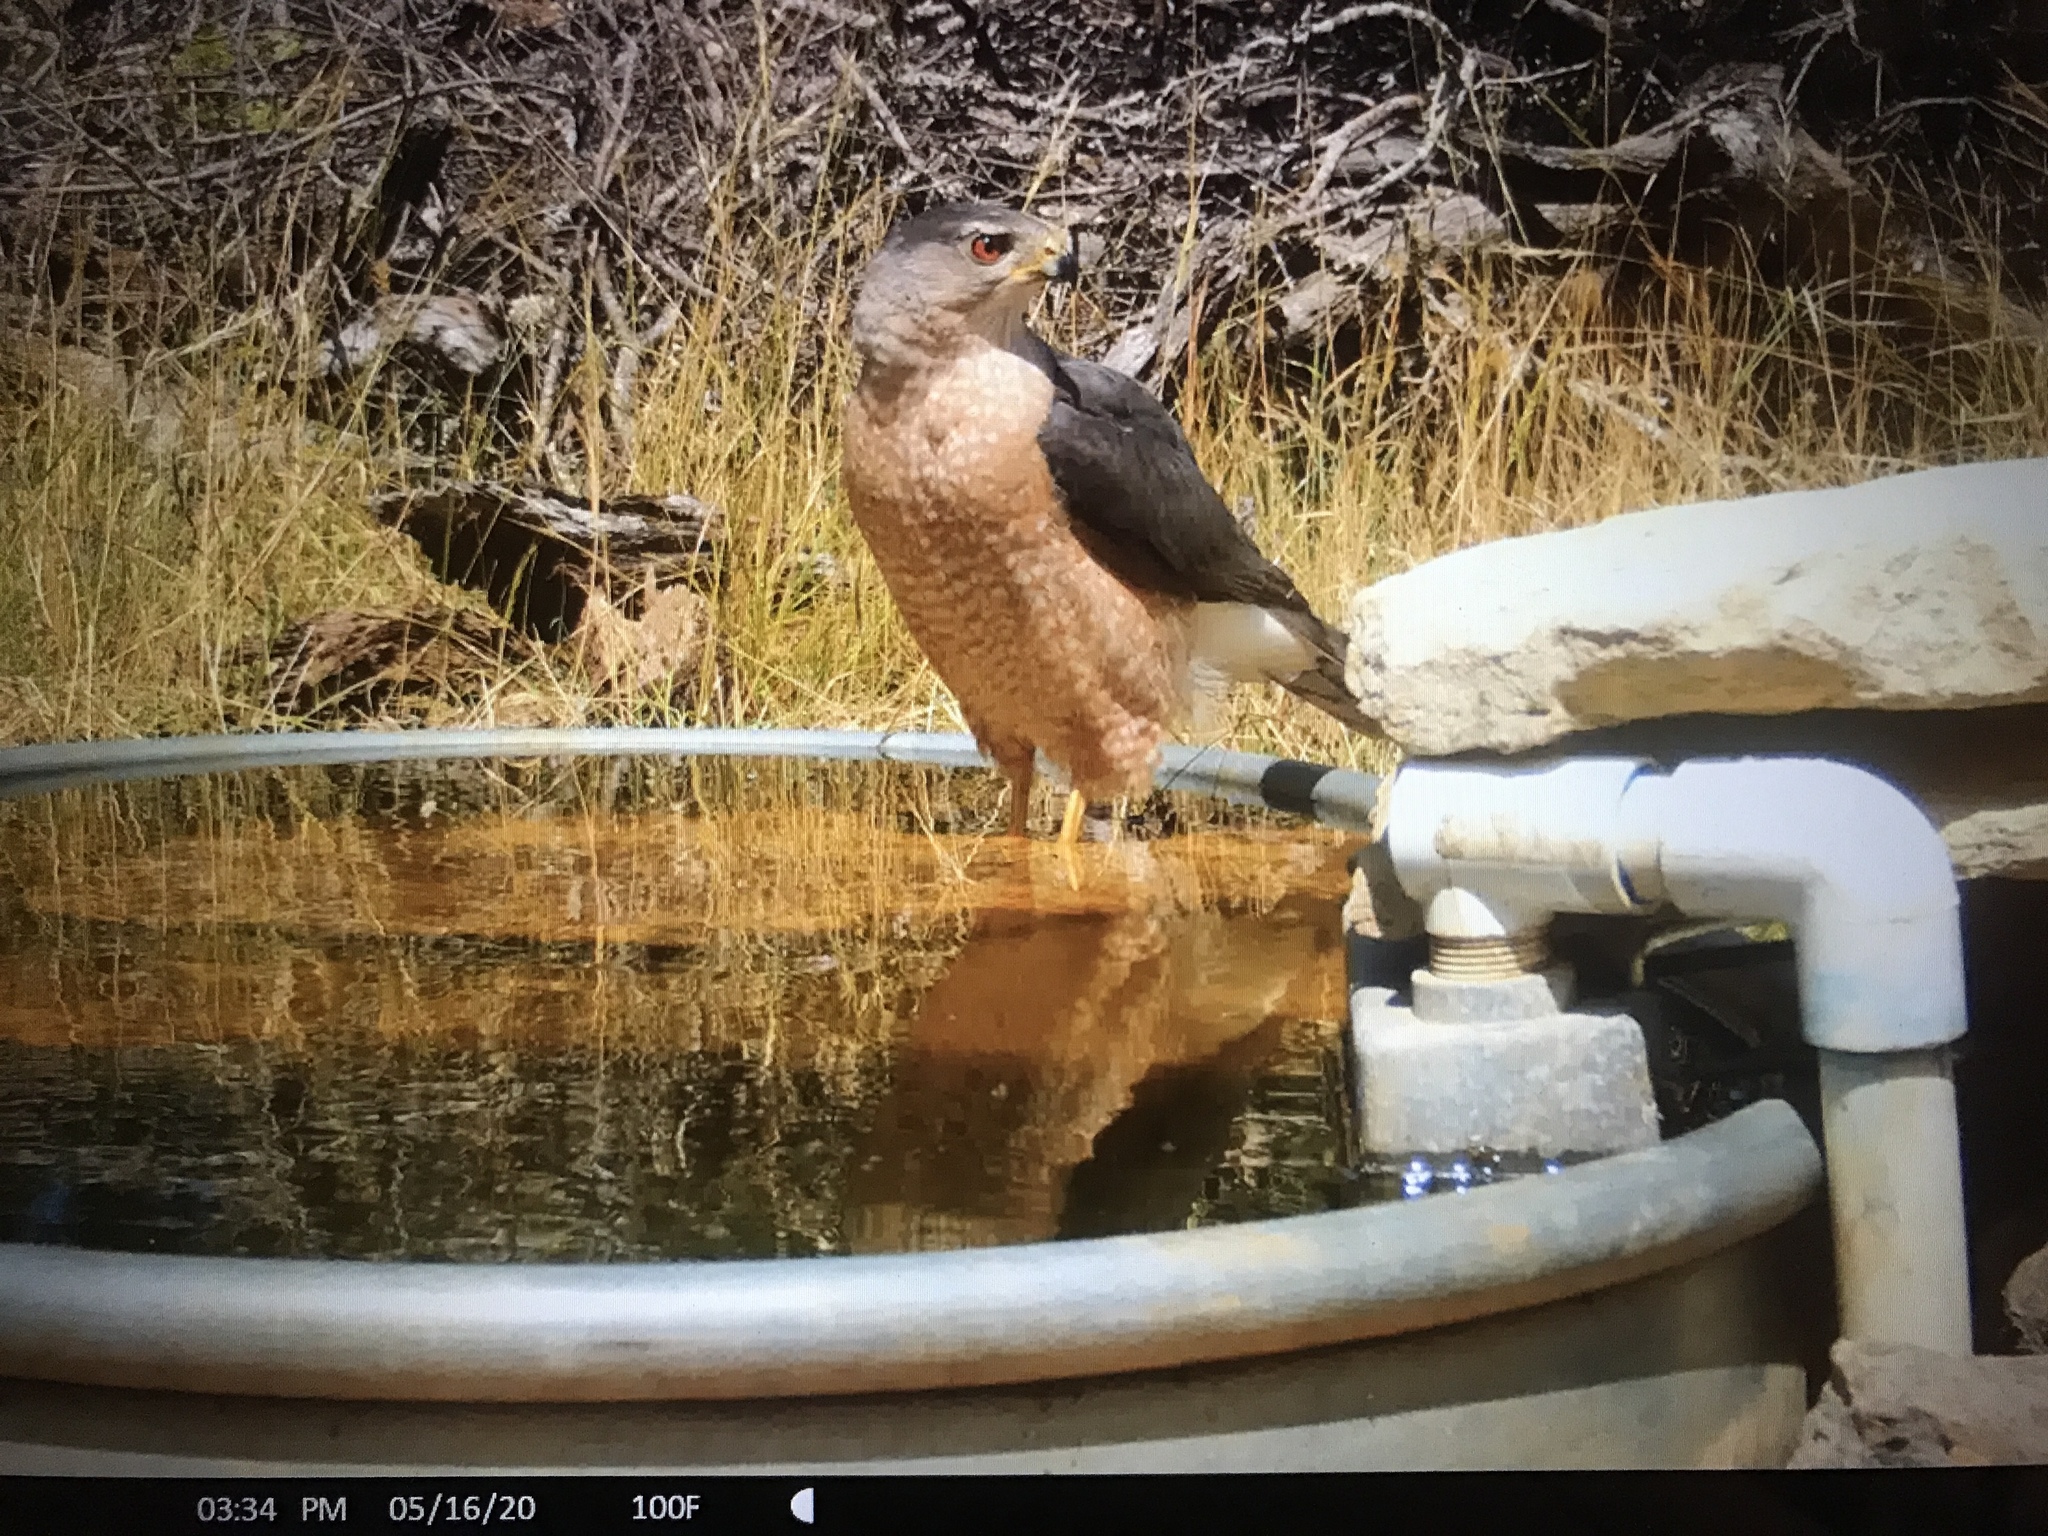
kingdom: Animalia
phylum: Chordata
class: Aves
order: Accipitriformes
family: Accipitridae
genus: Accipiter
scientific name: Accipiter cooperii
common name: Cooper's hawk
